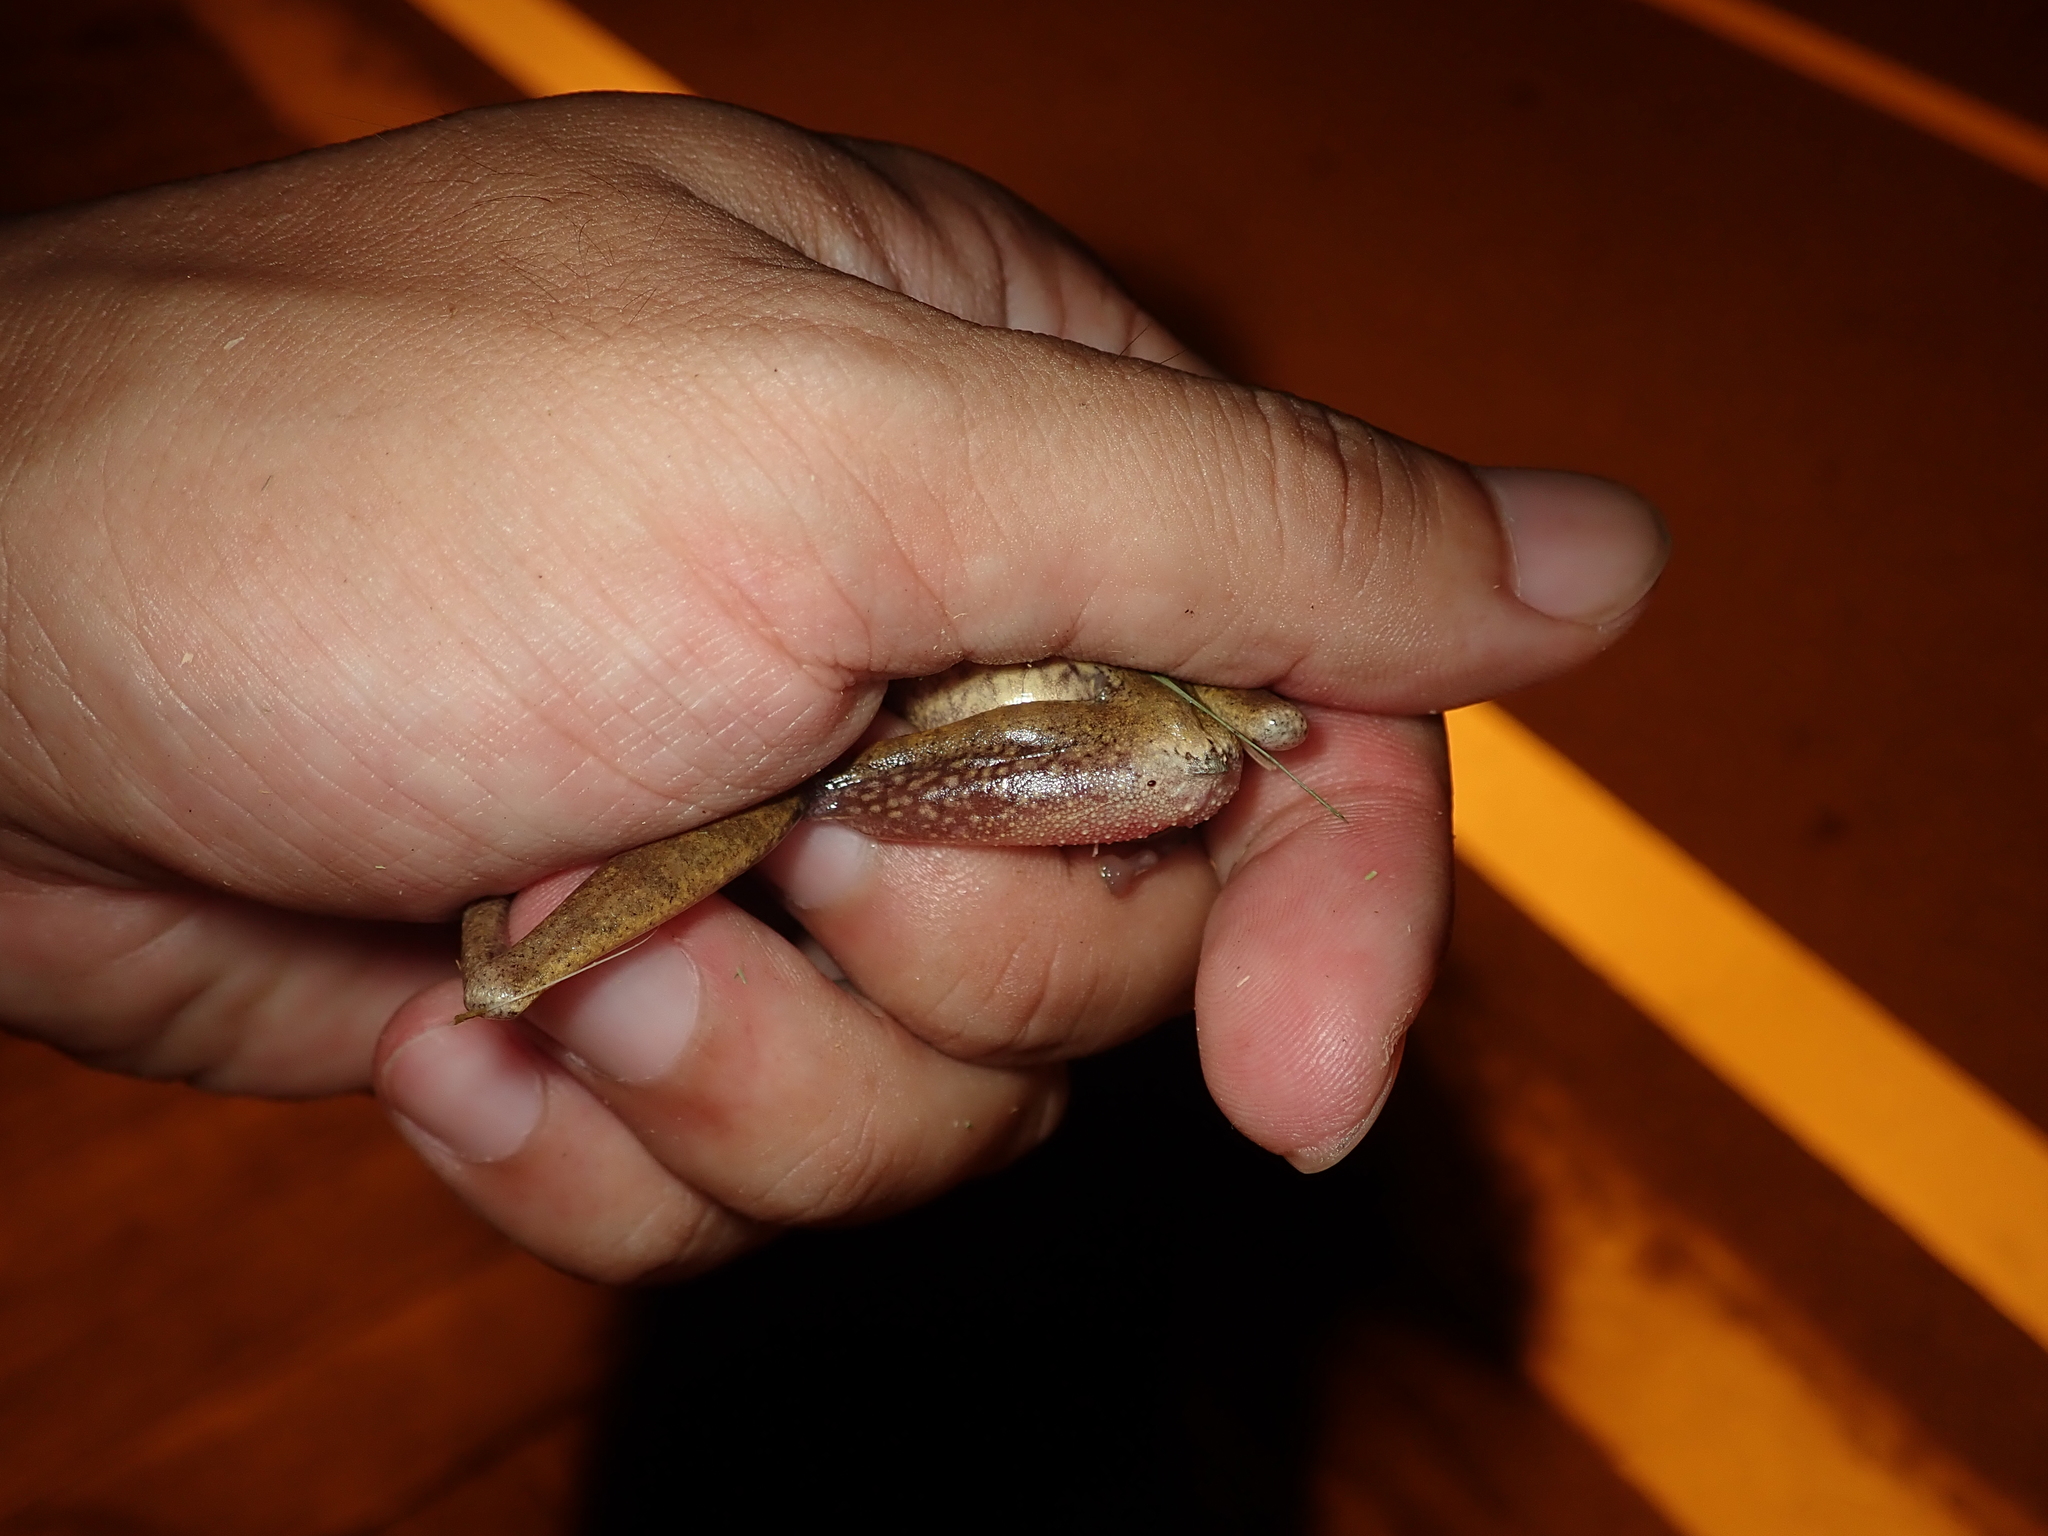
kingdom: Animalia
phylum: Chordata
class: Amphibia
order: Anura
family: Rhacophoridae
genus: Polypedates
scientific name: Polypedates megacephalus
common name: Hong kong whipping frog
